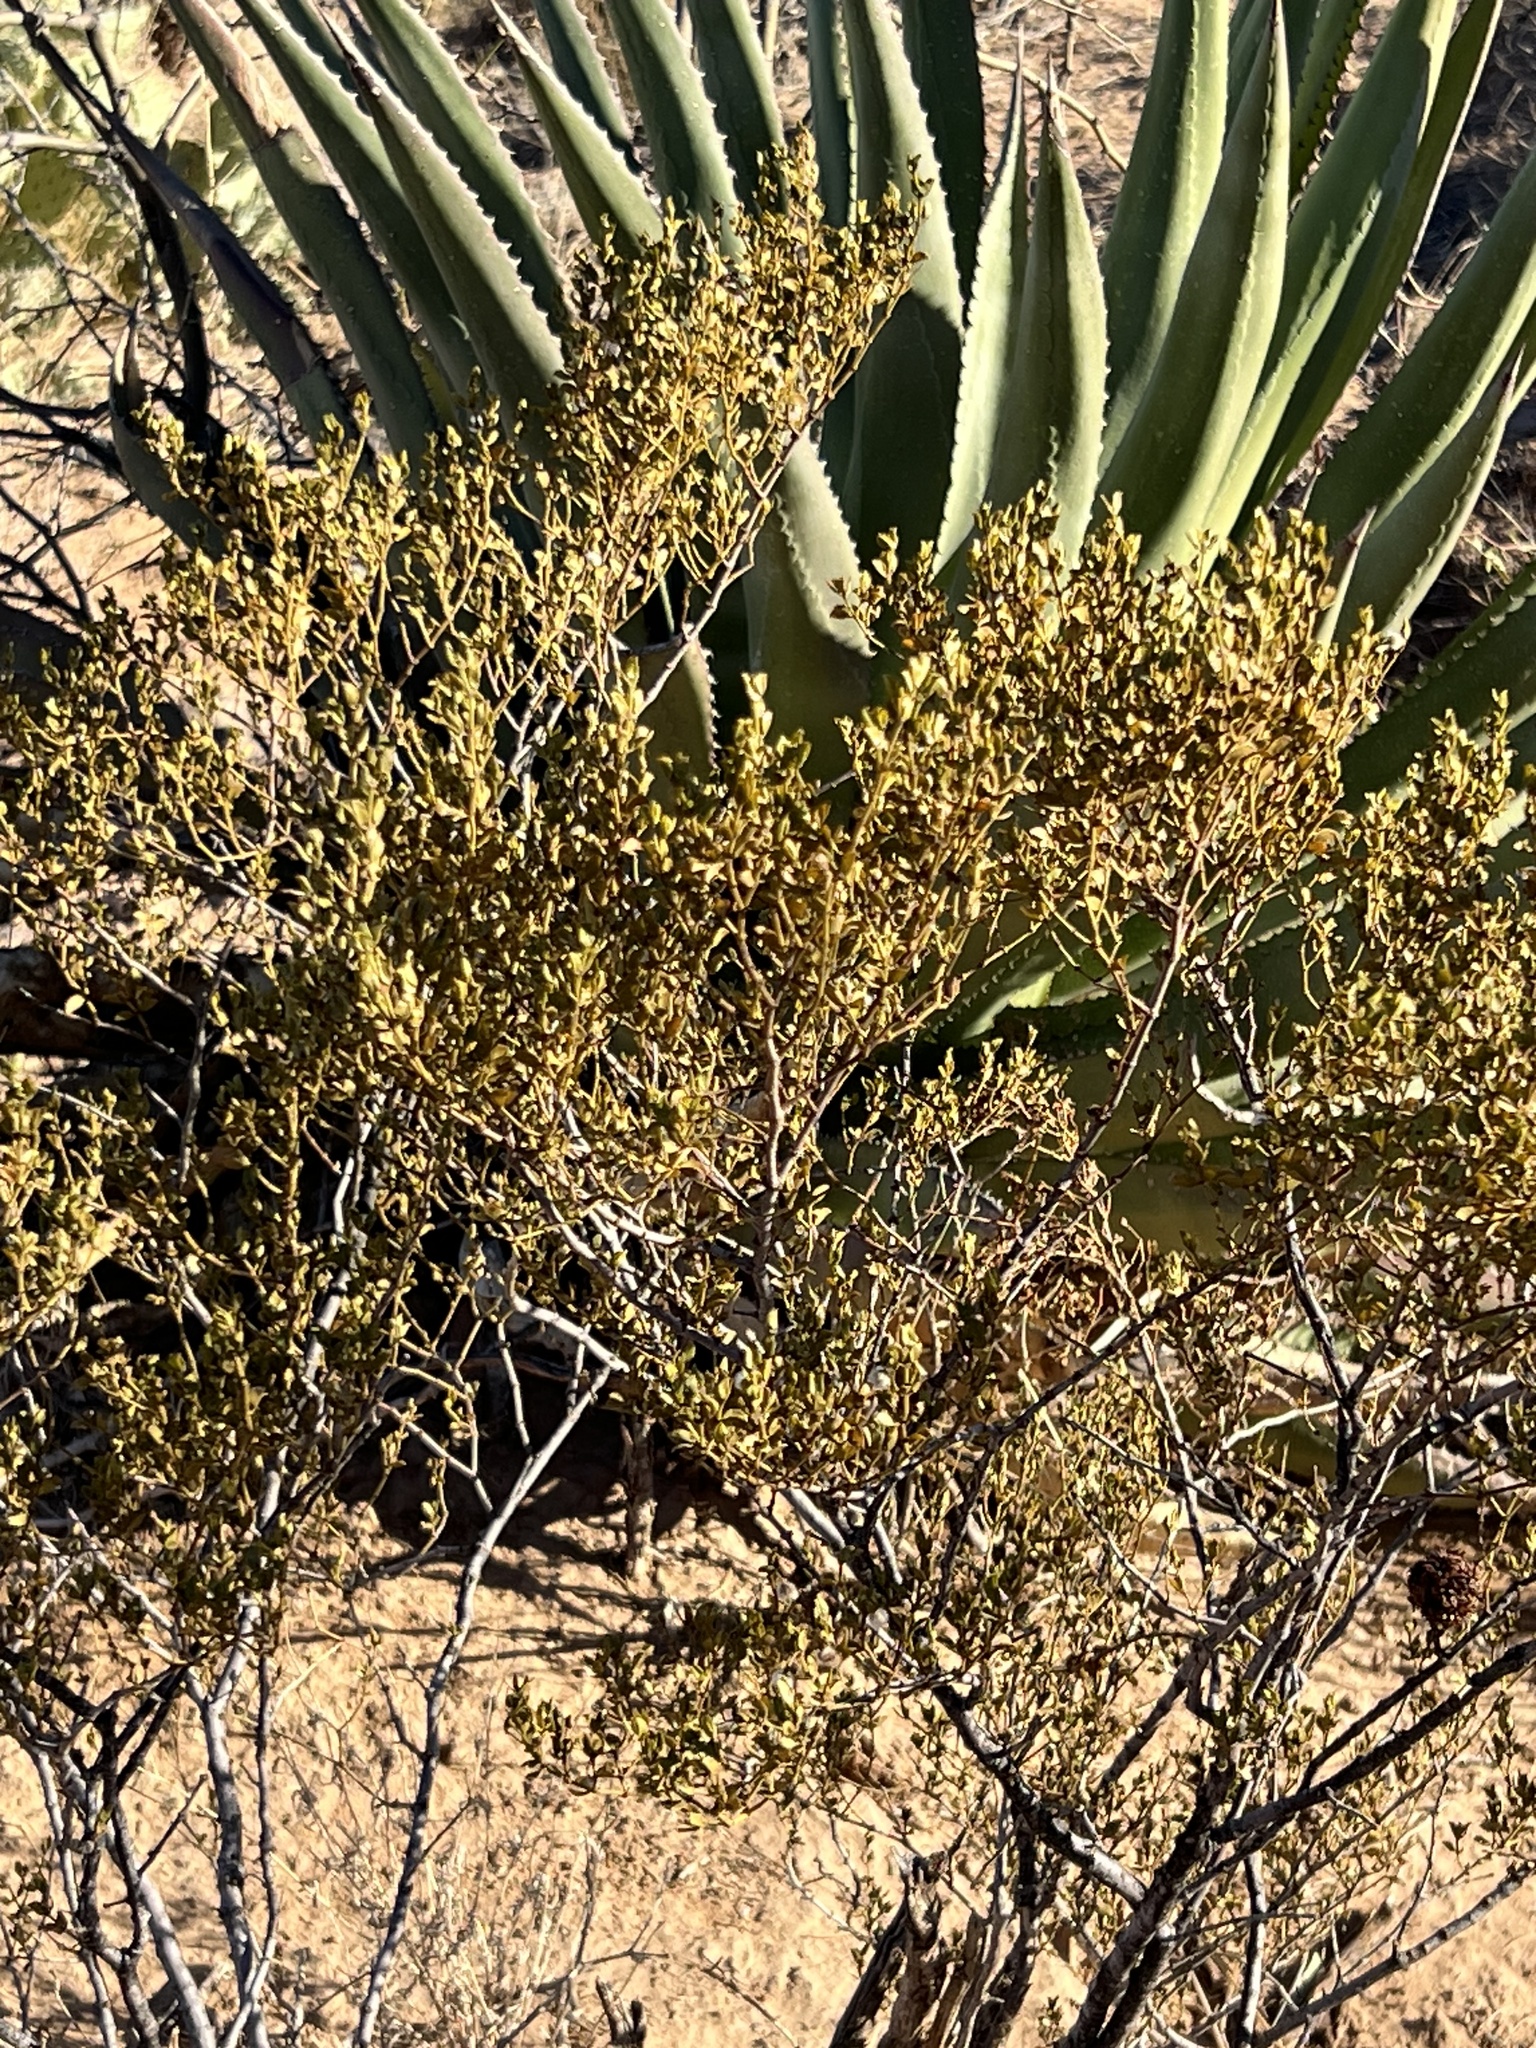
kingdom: Plantae
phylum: Tracheophyta
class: Magnoliopsida
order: Zygophyllales
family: Zygophyllaceae
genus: Larrea
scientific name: Larrea tridentata
